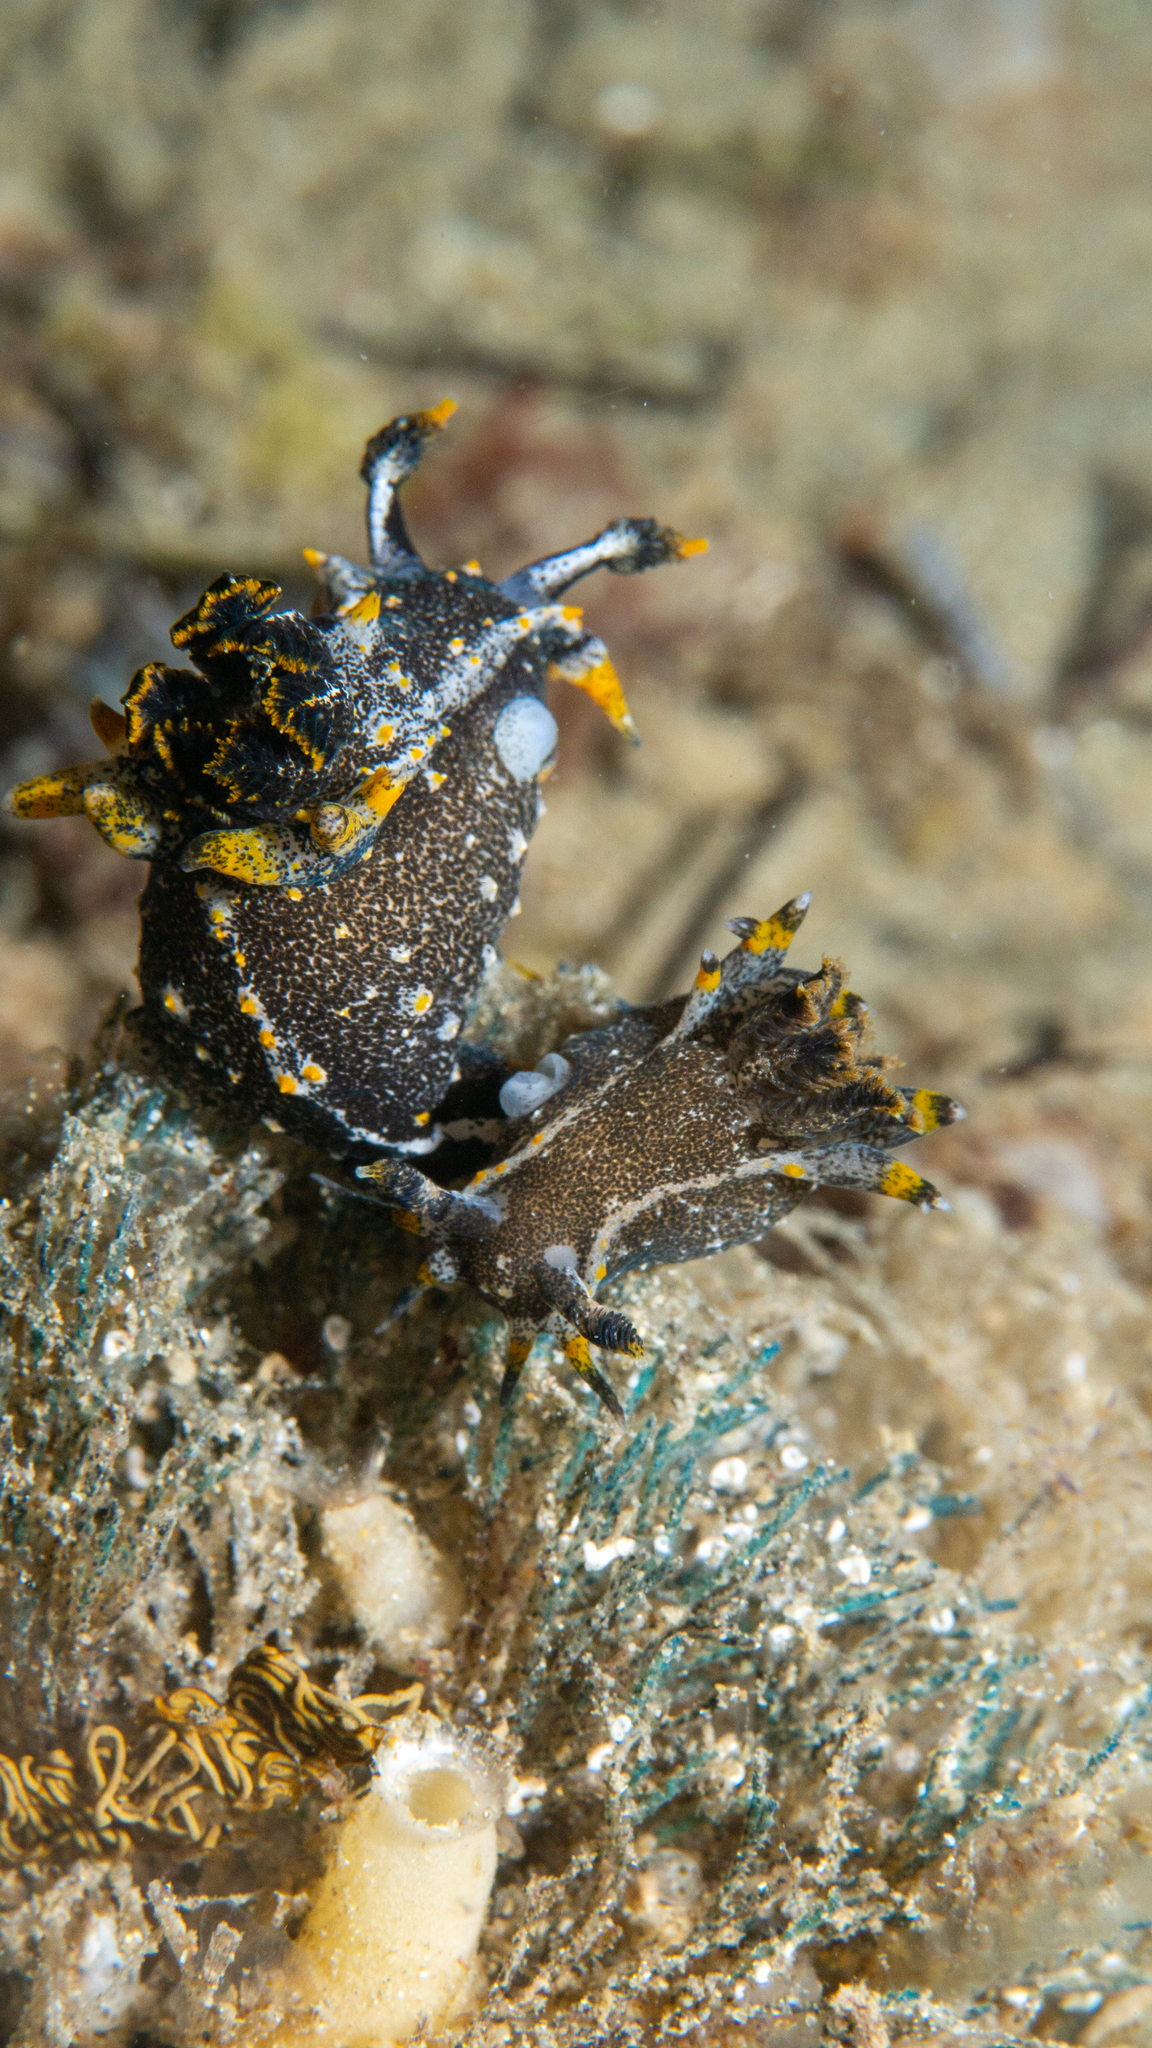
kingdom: Animalia
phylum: Mollusca
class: Gastropoda
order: Nudibranchia
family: Polyceridae
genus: Polycera
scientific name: Polycera hedgpethi
